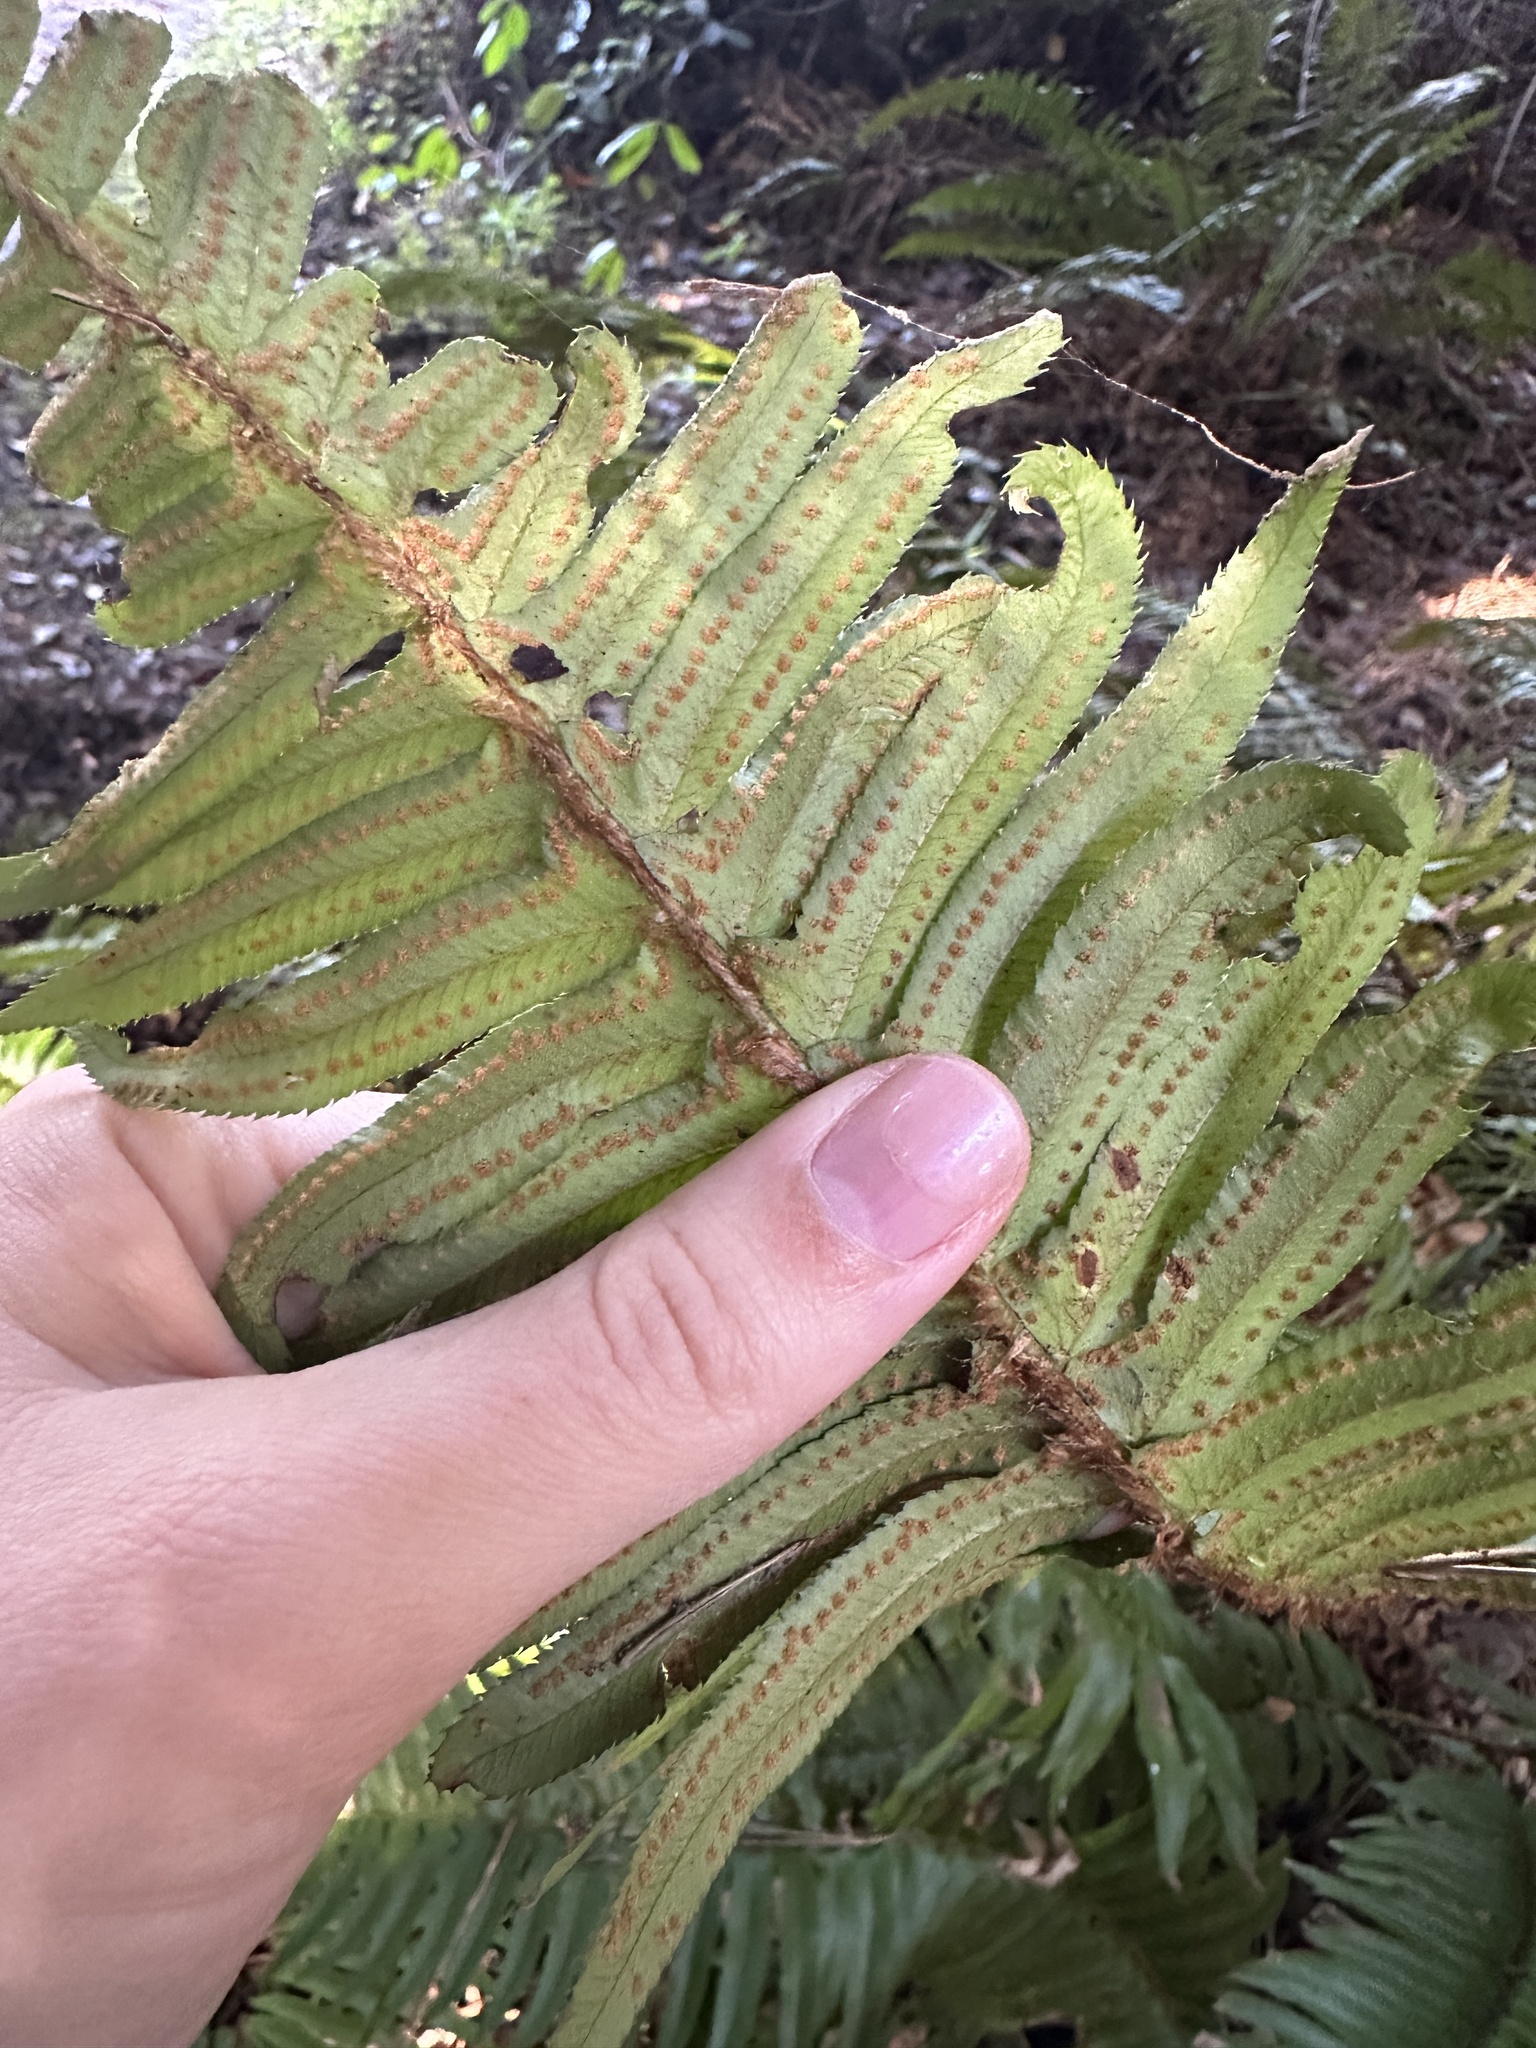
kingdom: Plantae
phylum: Tracheophyta
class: Polypodiopsida
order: Polypodiales
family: Dryopteridaceae
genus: Polystichum
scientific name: Polystichum munitum
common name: Western sword-fern
